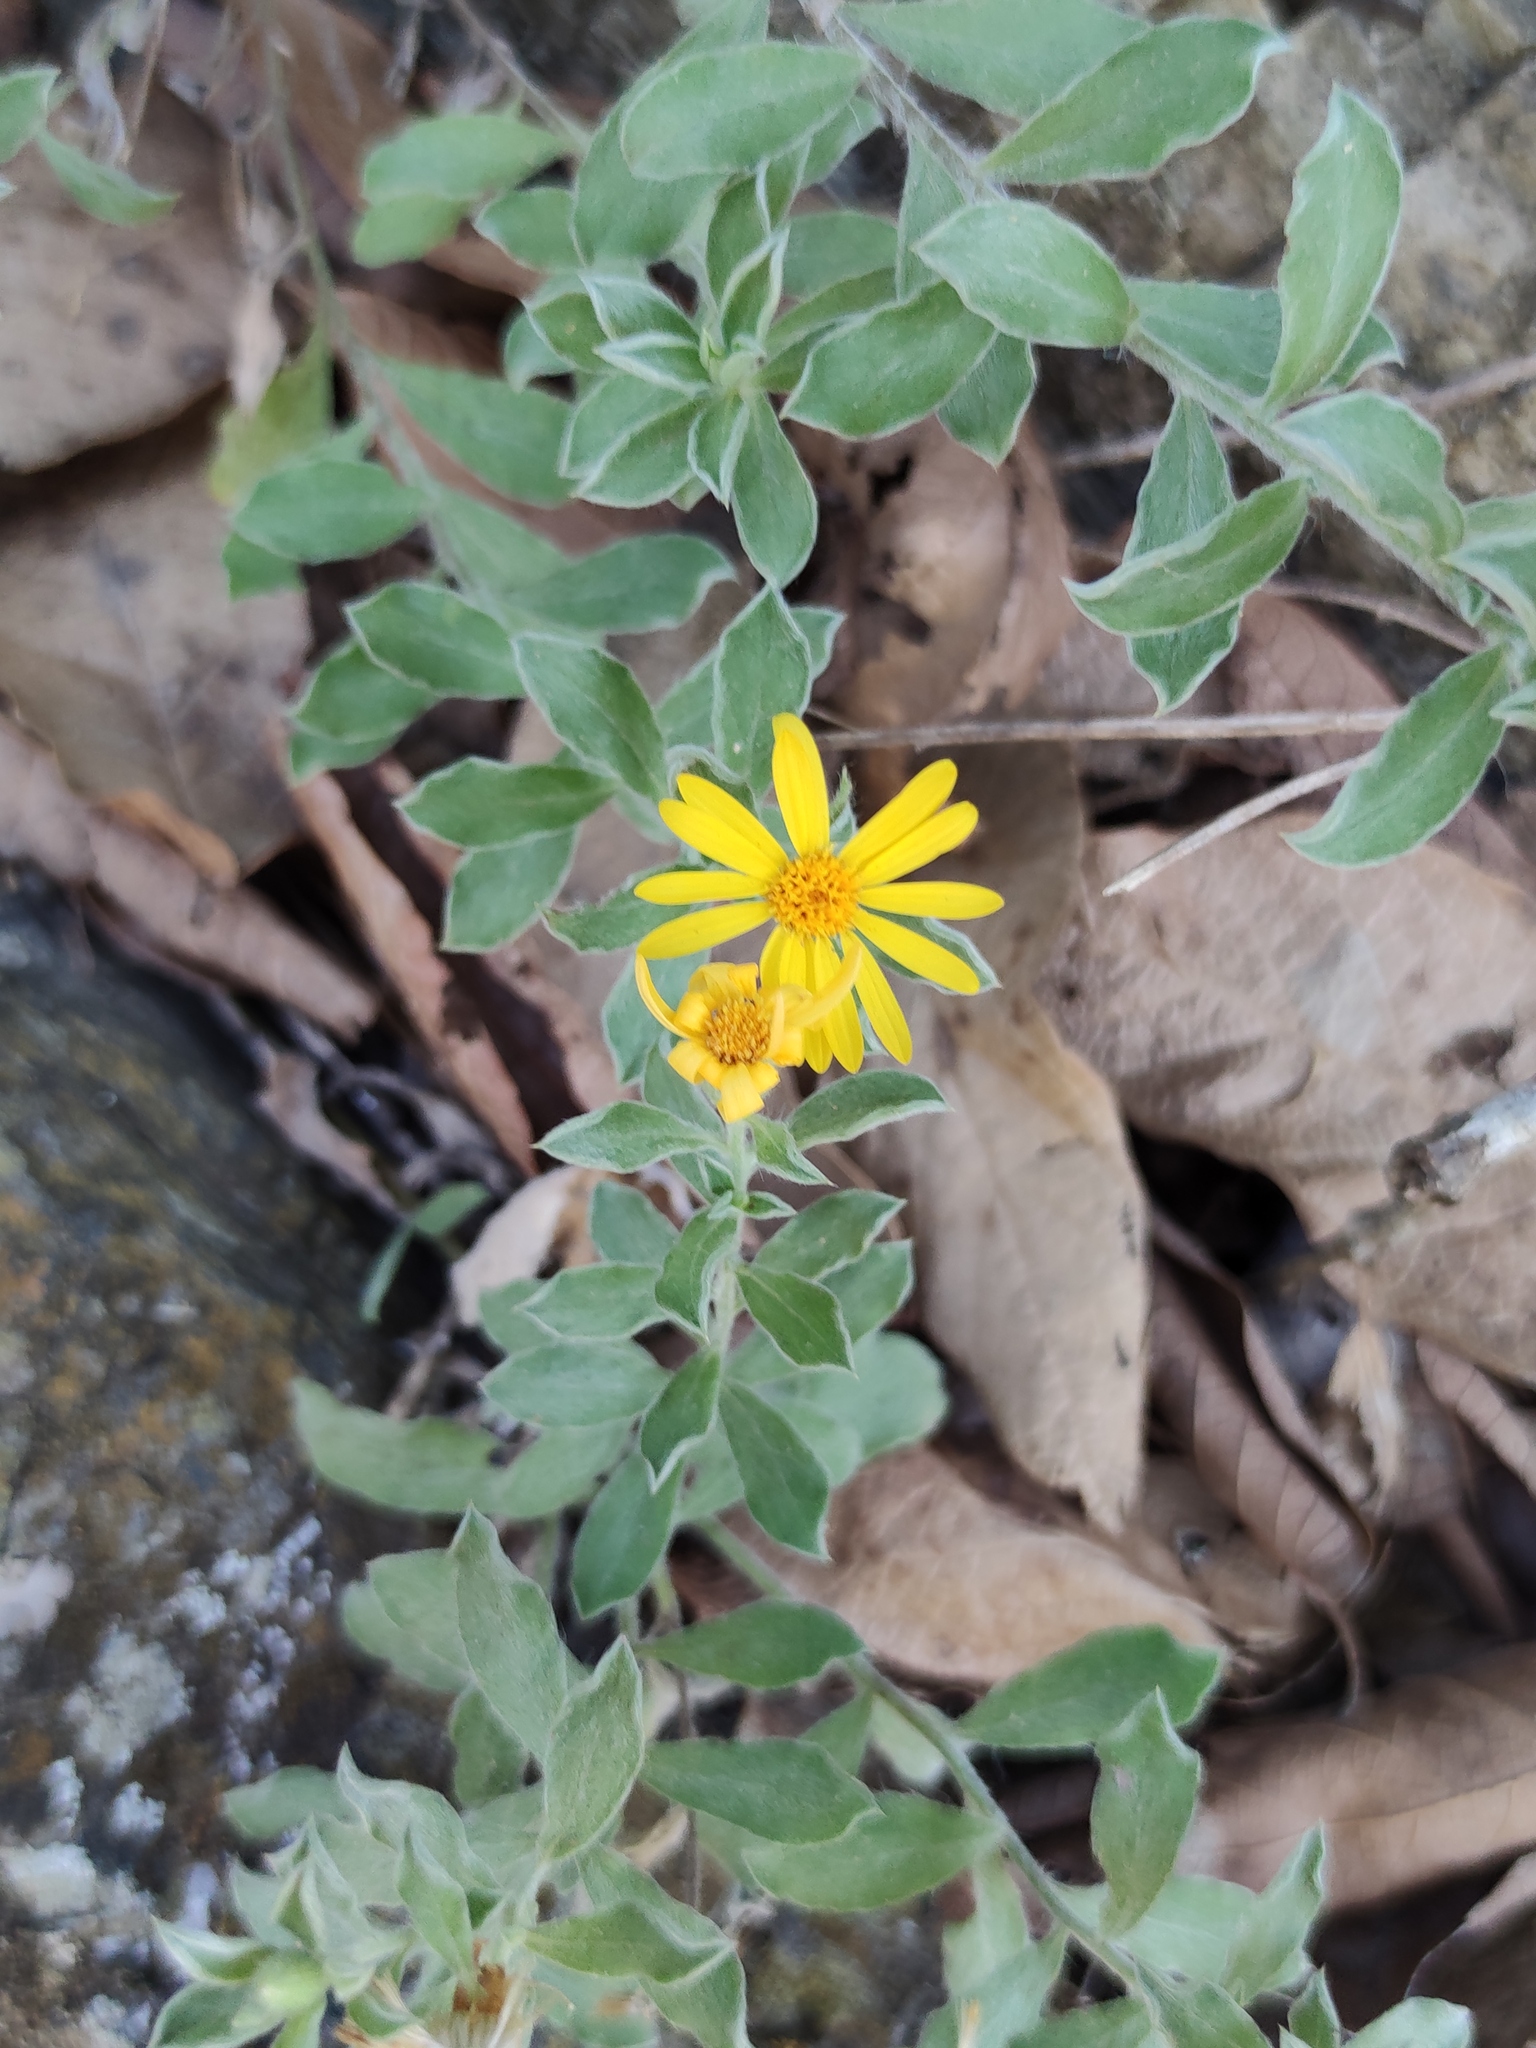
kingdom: Plantae
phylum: Tracheophyta
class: Magnoliopsida
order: Asterales
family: Asteraceae
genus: Heterotheca
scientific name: Heterotheca mucronata
